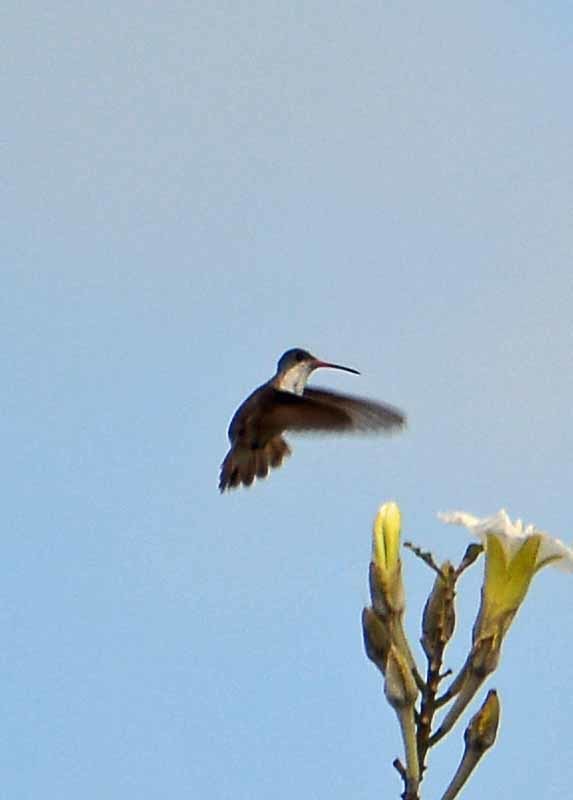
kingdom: Animalia
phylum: Chordata
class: Aves
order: Apodiformes
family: Trochilidae
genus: Leucolia
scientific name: Leucolia violiceps
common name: Violet-crowned hummingbird
